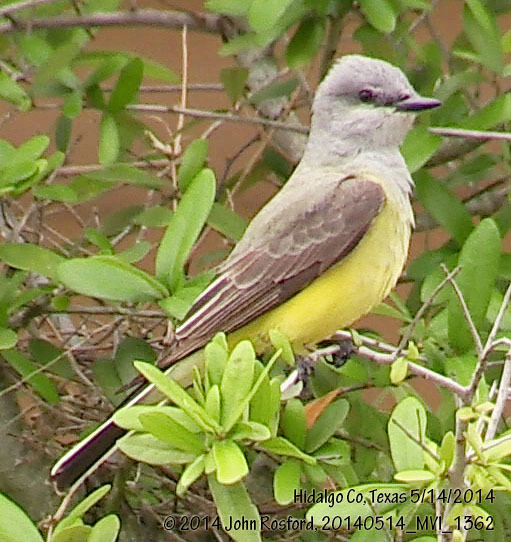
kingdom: Animalia
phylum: Chordata
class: Aves
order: Passeriformes
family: Tyrannidae
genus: Tyrannus
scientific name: Tyrannus verticalis
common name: Western kingbird
